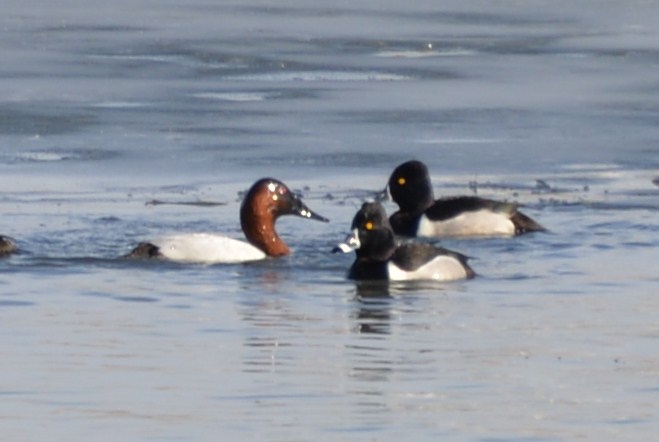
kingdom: Animalia
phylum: Chordata
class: Aves
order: Anseriformes
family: Anatidae
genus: Aythya
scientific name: Aythya collaris
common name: Ring-necked duck
